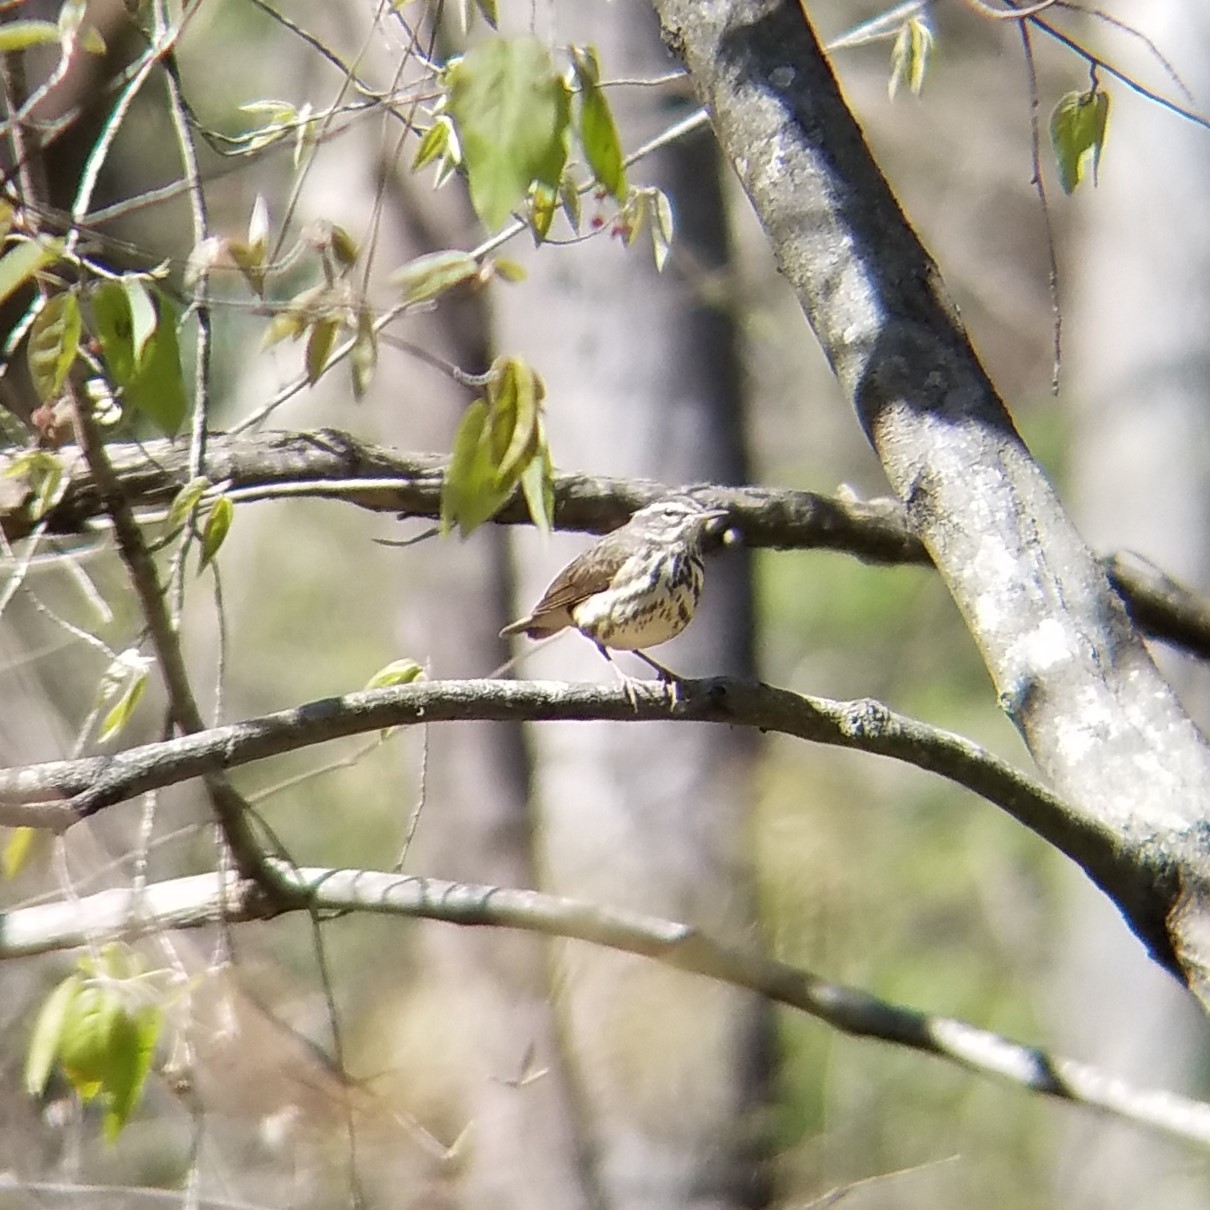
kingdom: Animalia
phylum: Chordata
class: Aves
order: Passeriformes
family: Parulidae
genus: Parkesia
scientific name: Parkesia motacilla
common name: Louisiana waterthrush
